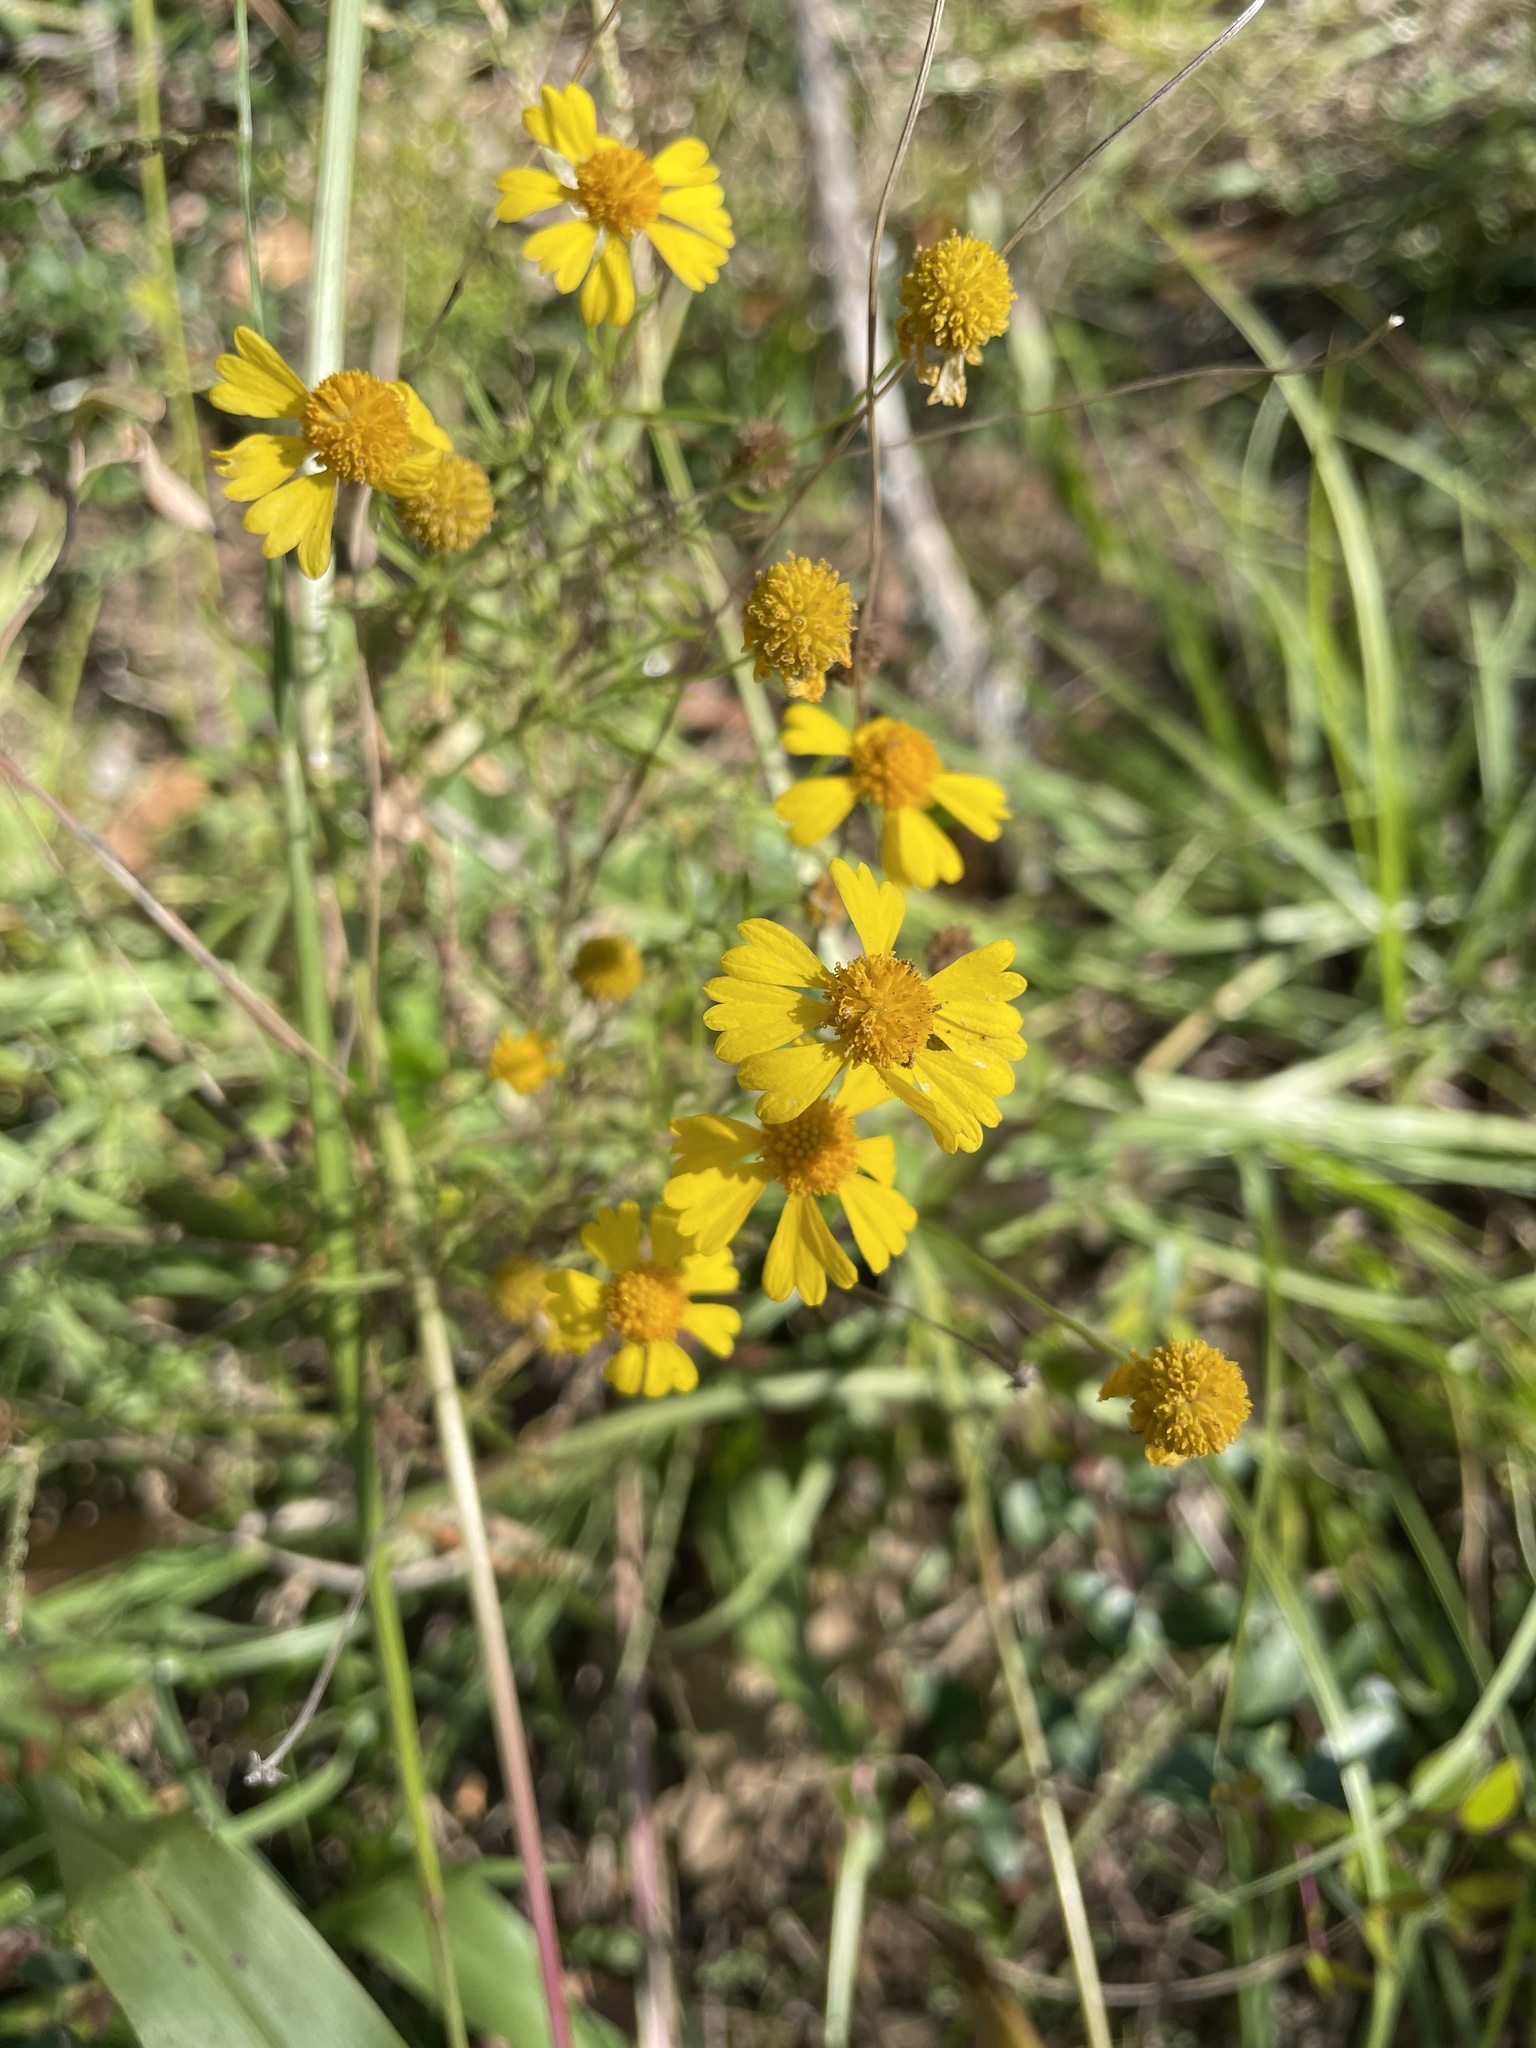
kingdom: Plantae
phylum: Tracheophyta
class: Magnoliopsida
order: Asterales
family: Asteraceae
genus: Helenium
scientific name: Helenium amarum
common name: Bitter sneezeweed
